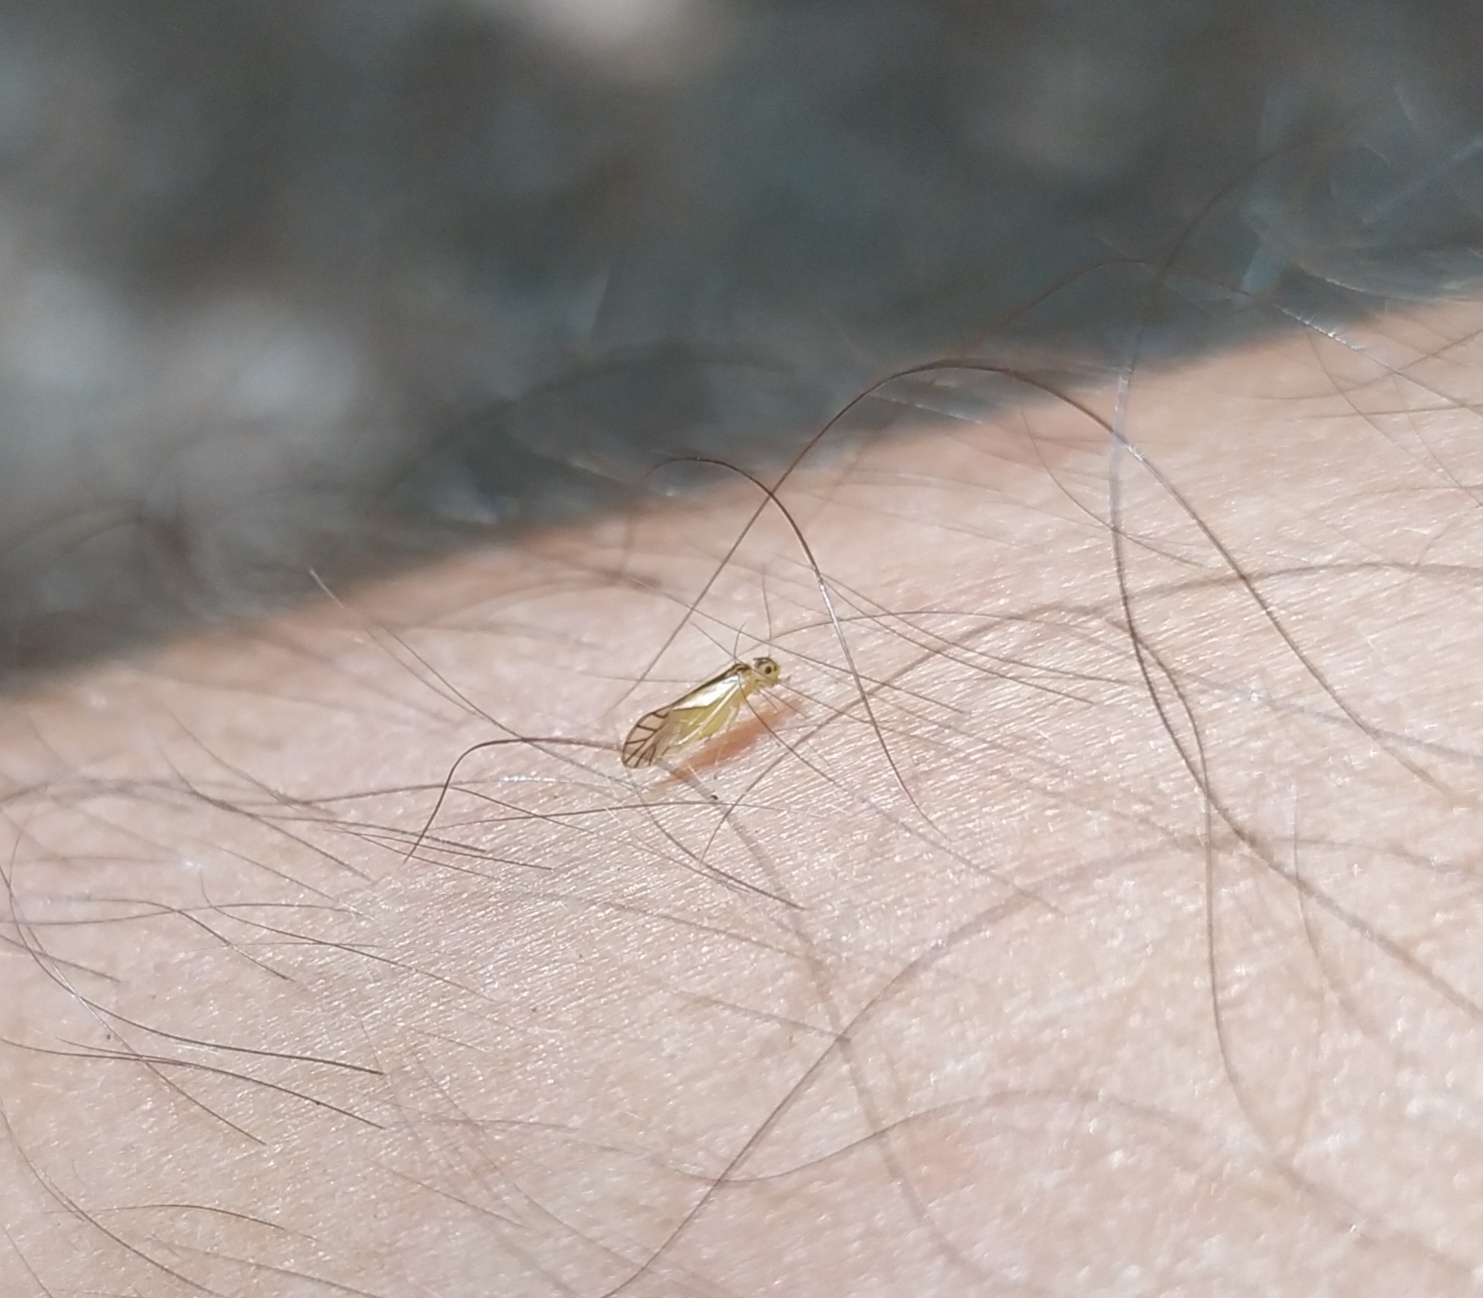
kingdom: Animalia
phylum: Arthropoda
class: Insecta
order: Psocodea
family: Caeciliusidae
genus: Valenzuela
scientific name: Valenzuela flavidus
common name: Yellow barklouse
